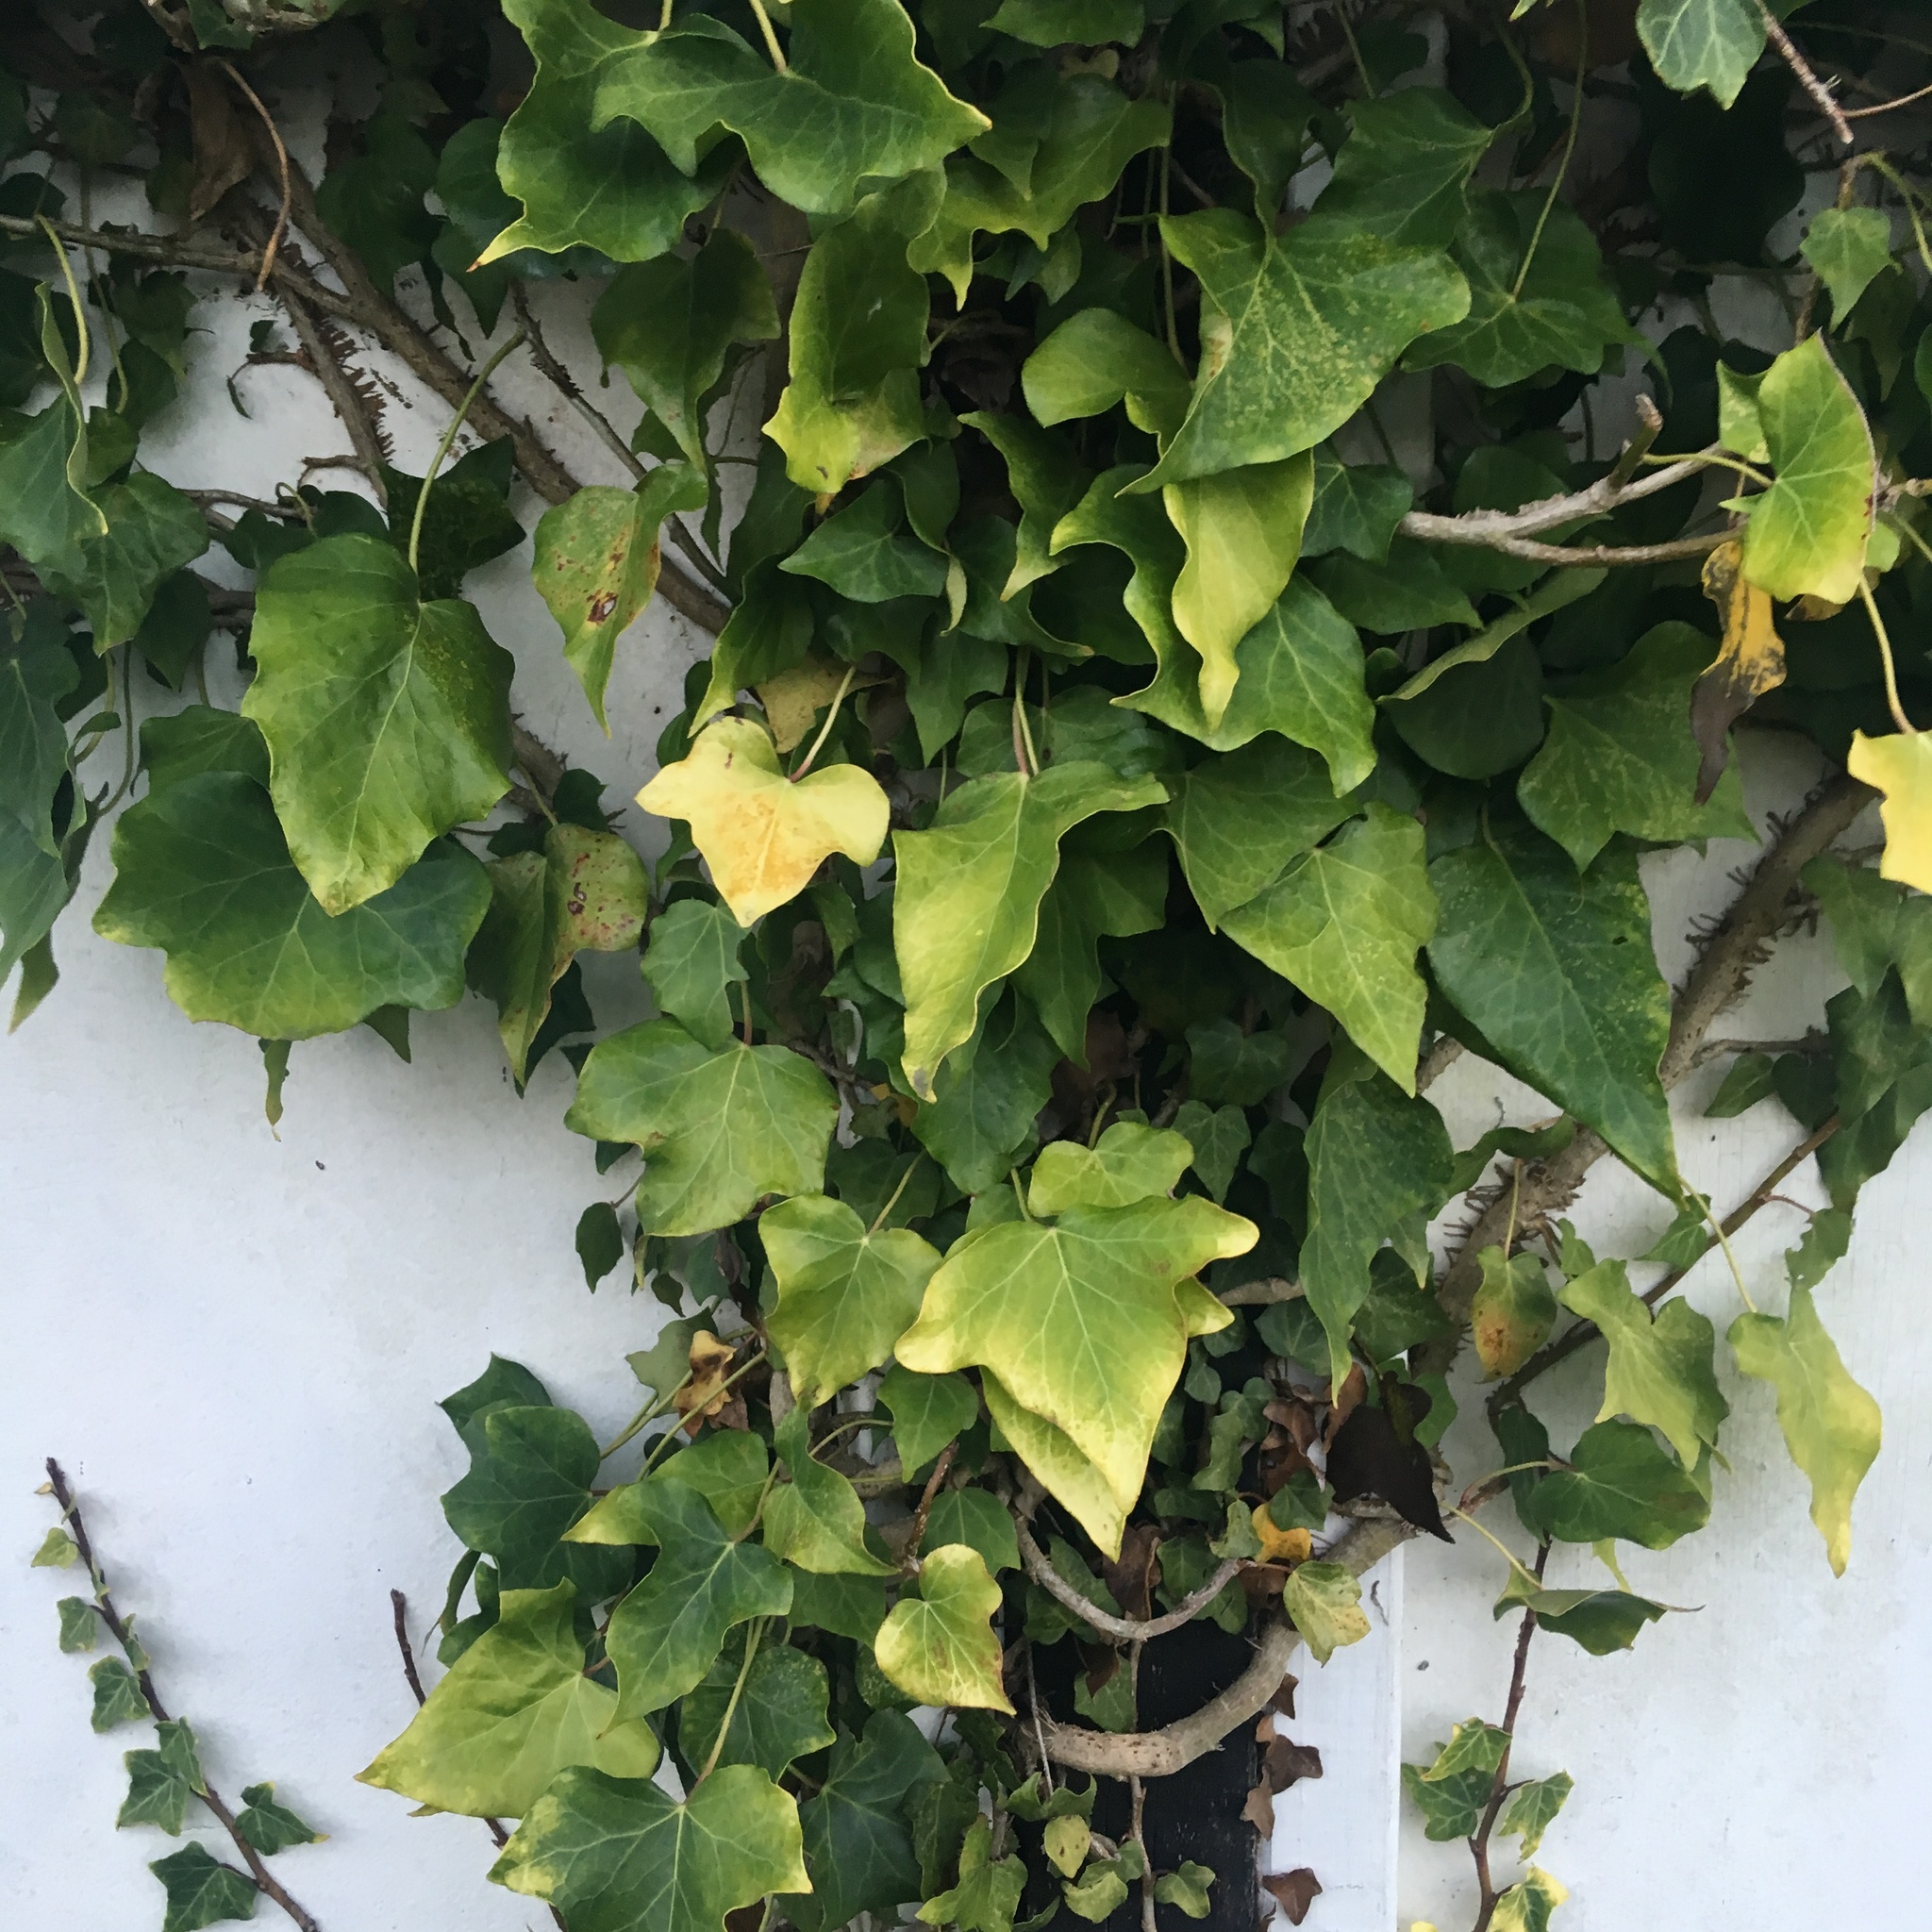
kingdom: Plantae
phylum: Tracheophyta
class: Magnoliopsida
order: Apiales
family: Araliaceae
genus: Hedera
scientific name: Hedera helix
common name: Ivy
